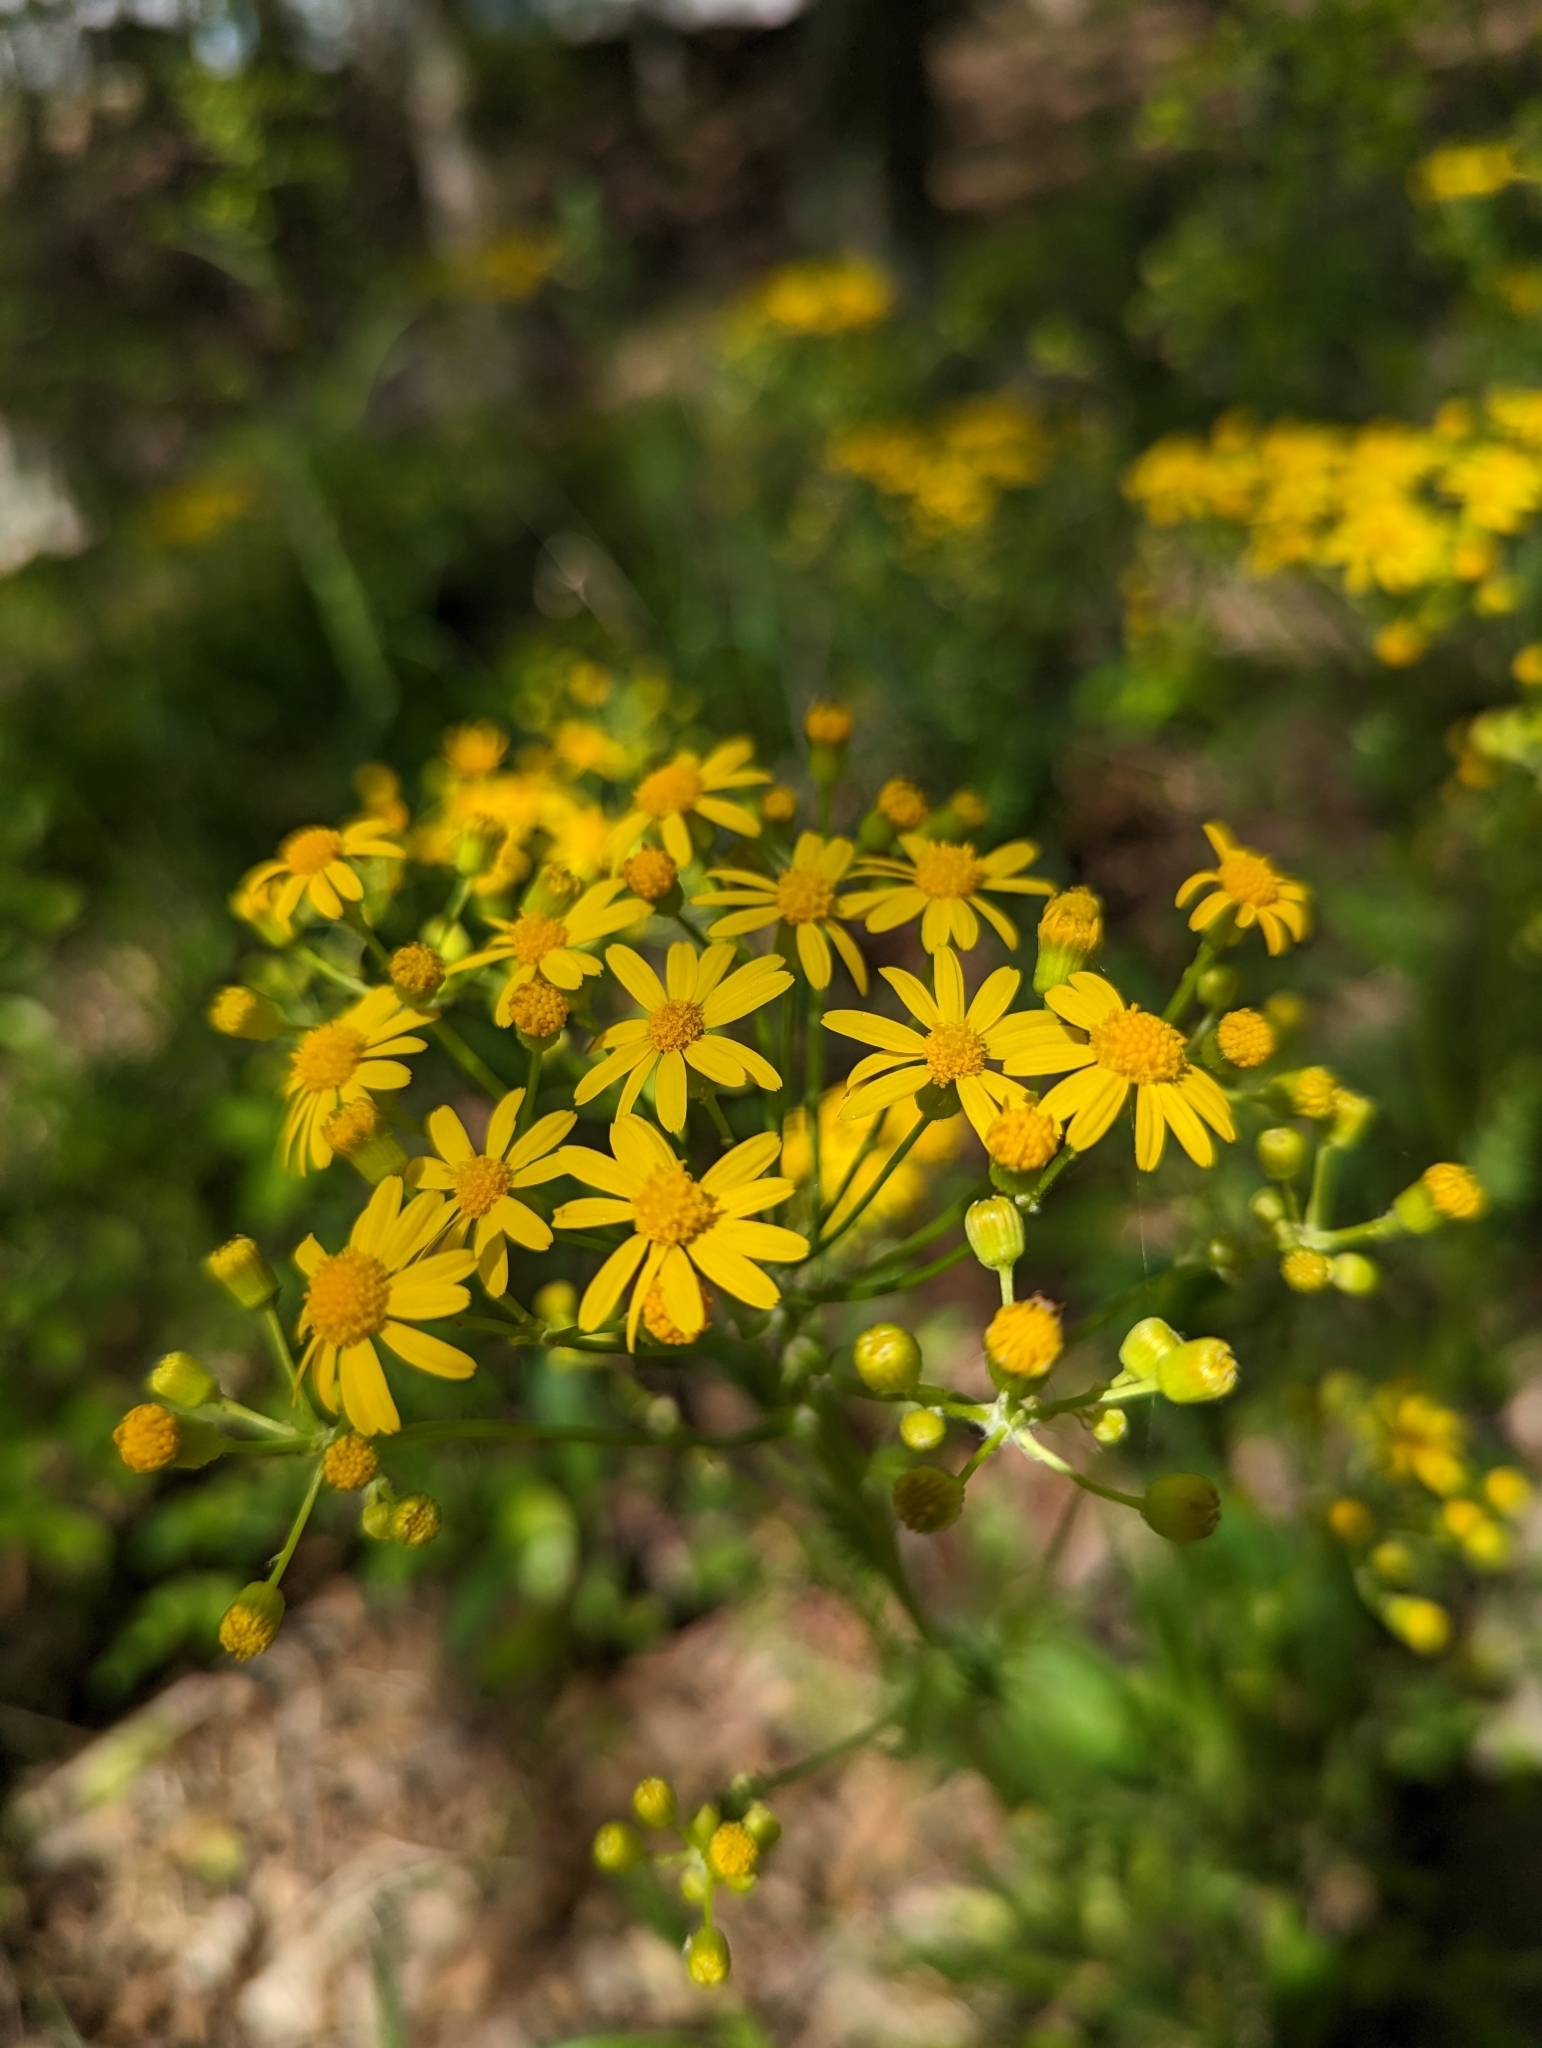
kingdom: Plantae
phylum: Tracheophyta
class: Magnoliopsida
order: Asterales
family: Asteraceae
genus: Packera
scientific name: Packera anonyma
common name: Small ragwort
